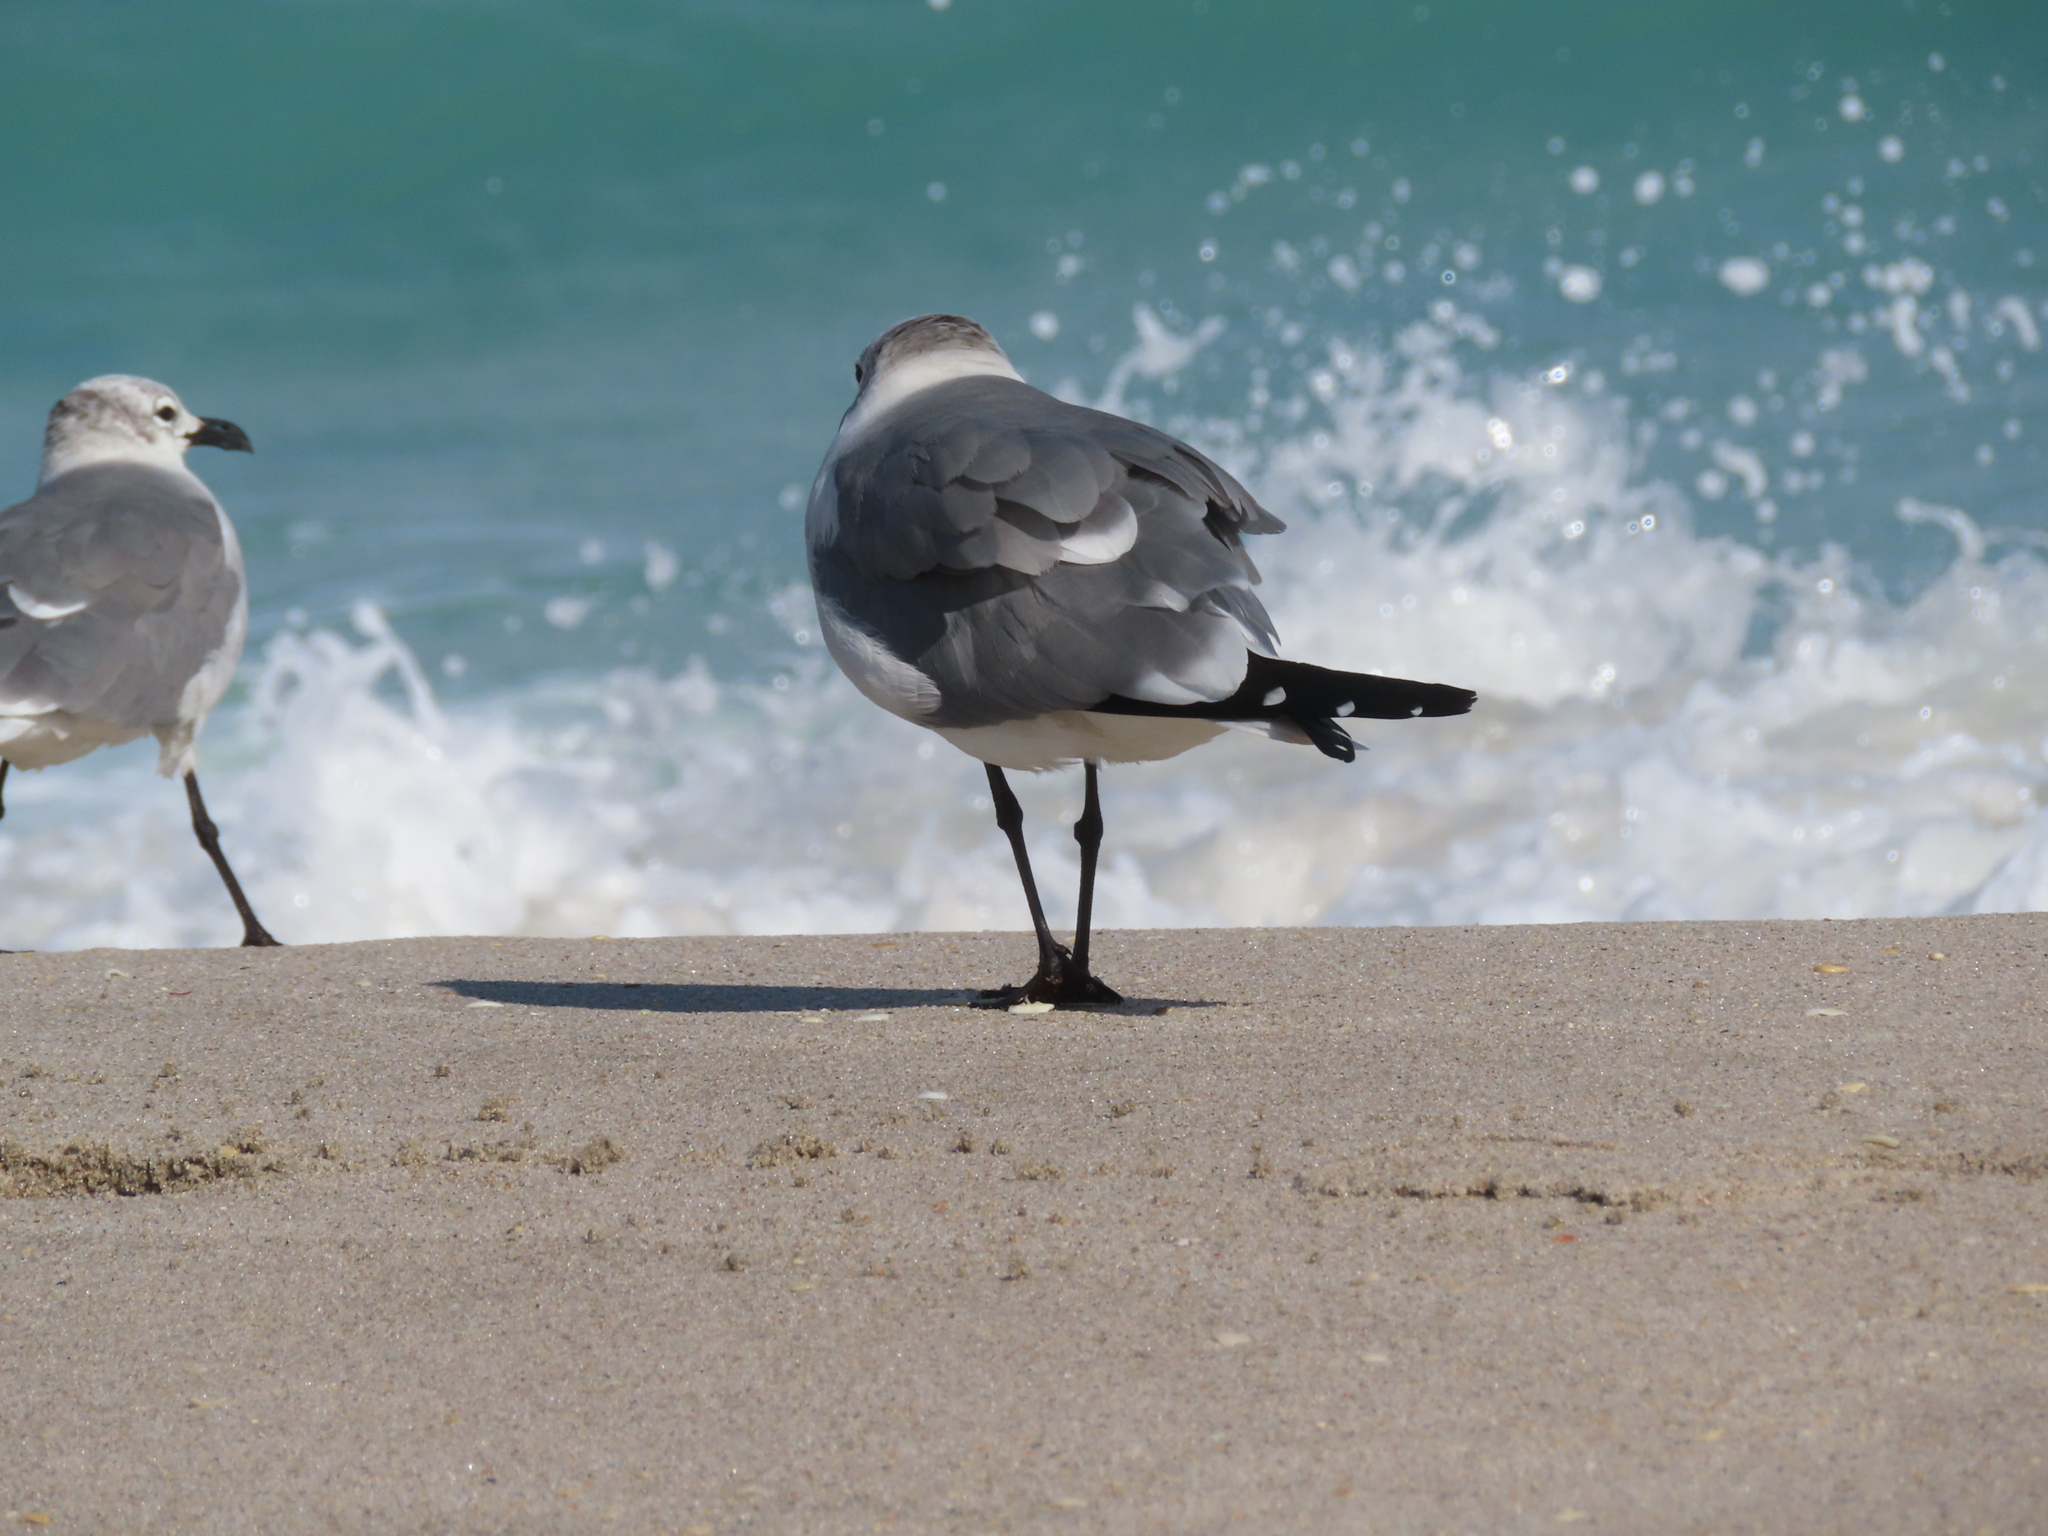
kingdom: Animalia
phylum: Chordata
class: Aves
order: Charadriiformes
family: Laridae
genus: Leucophaeus
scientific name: Leucophaeus atricilla
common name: Laughing gull
